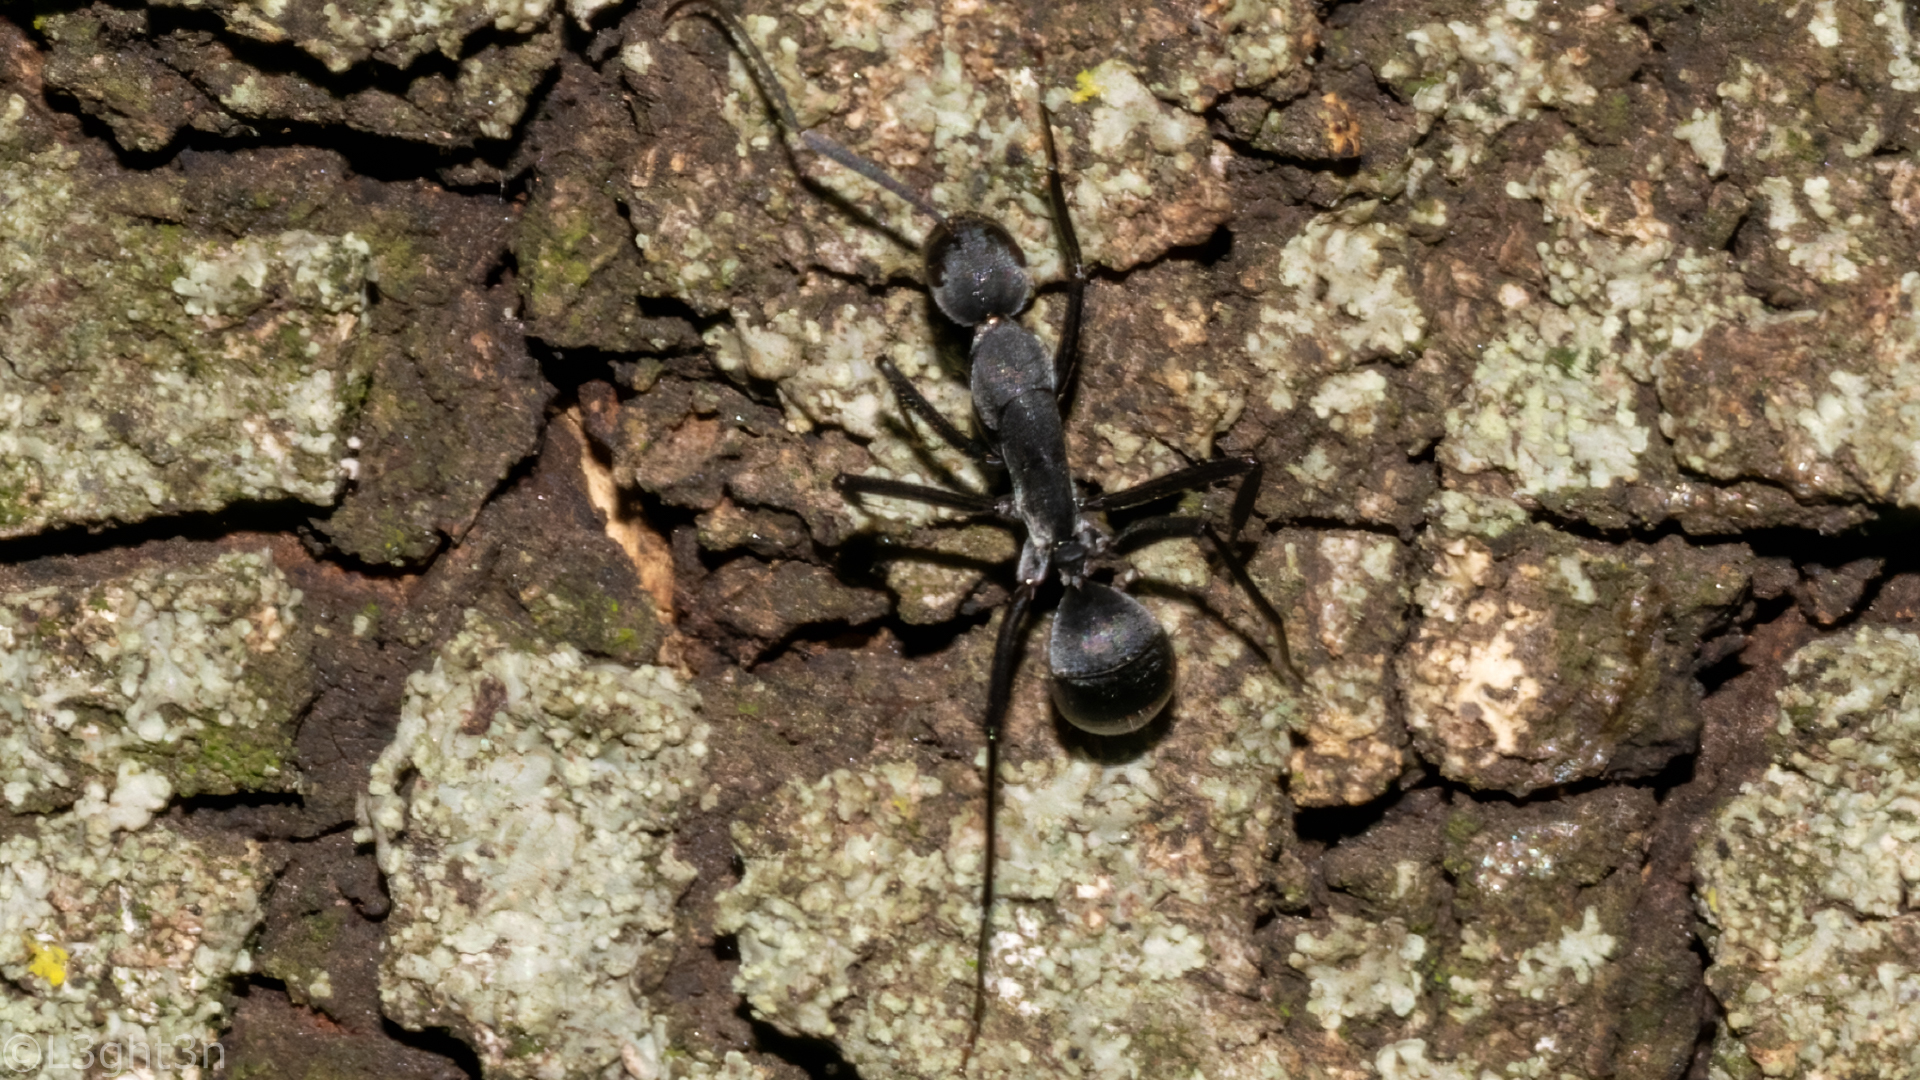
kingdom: Animalia
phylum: Arthropoda
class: Insecta
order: Hymenoptera
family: Formicidae
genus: Camponotus
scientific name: Camponotus eugeniae
